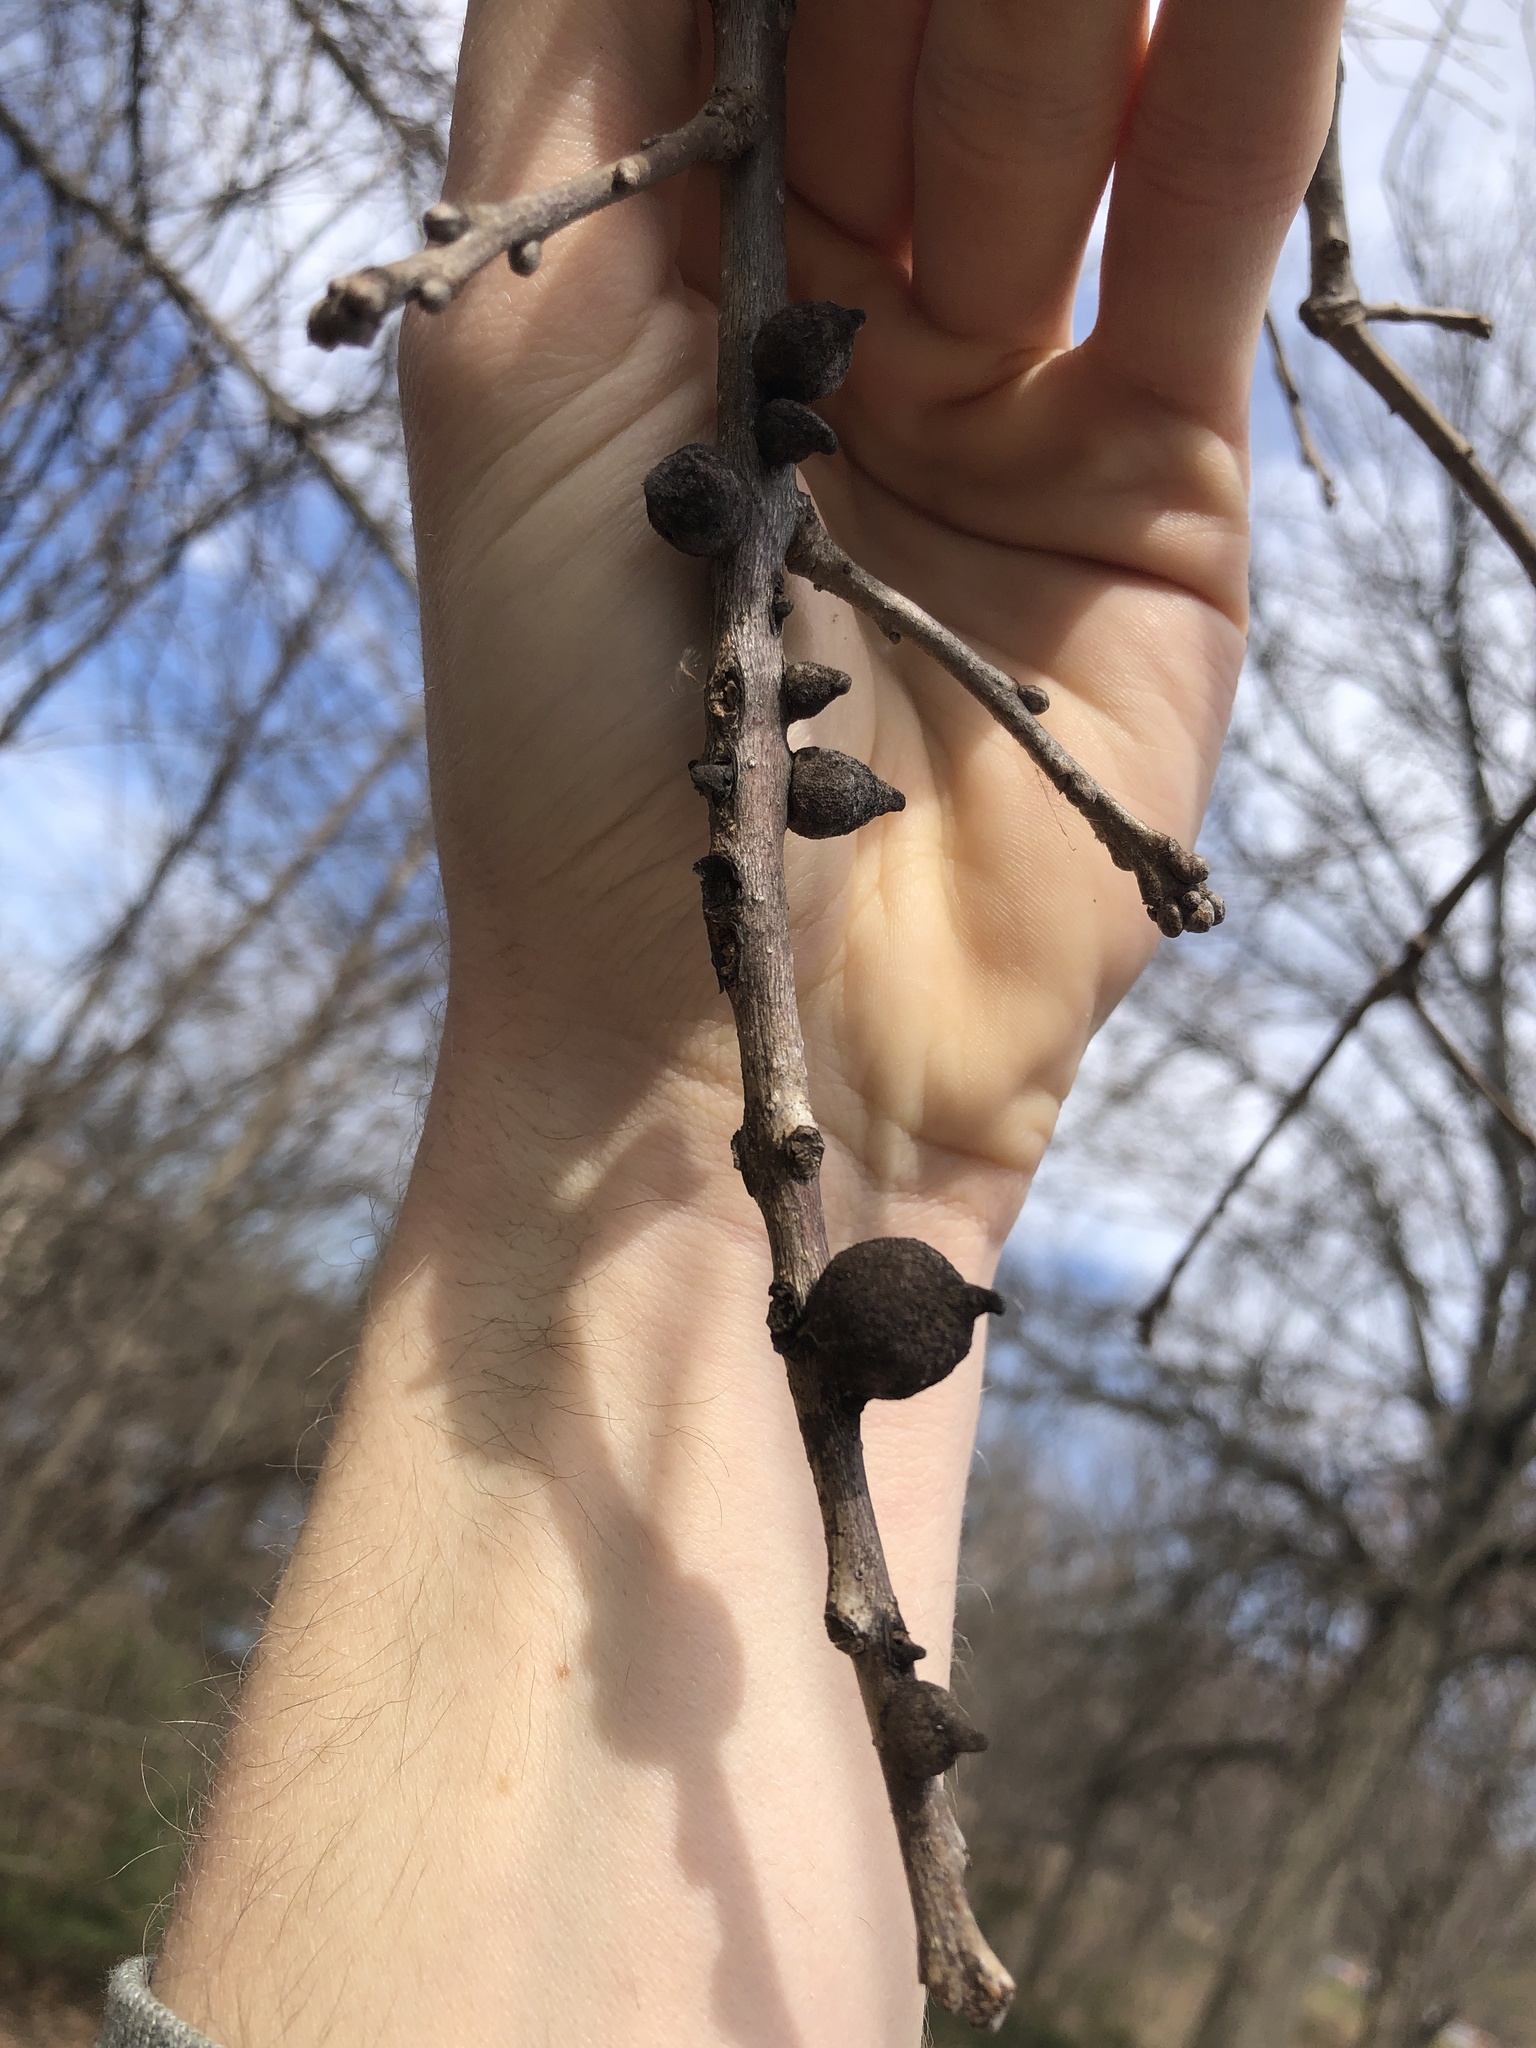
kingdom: Animalia
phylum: Arthropoda
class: Insecta
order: Hymenoptera
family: Cynipidae
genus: Disholcaspis
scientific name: Disholcaspis
